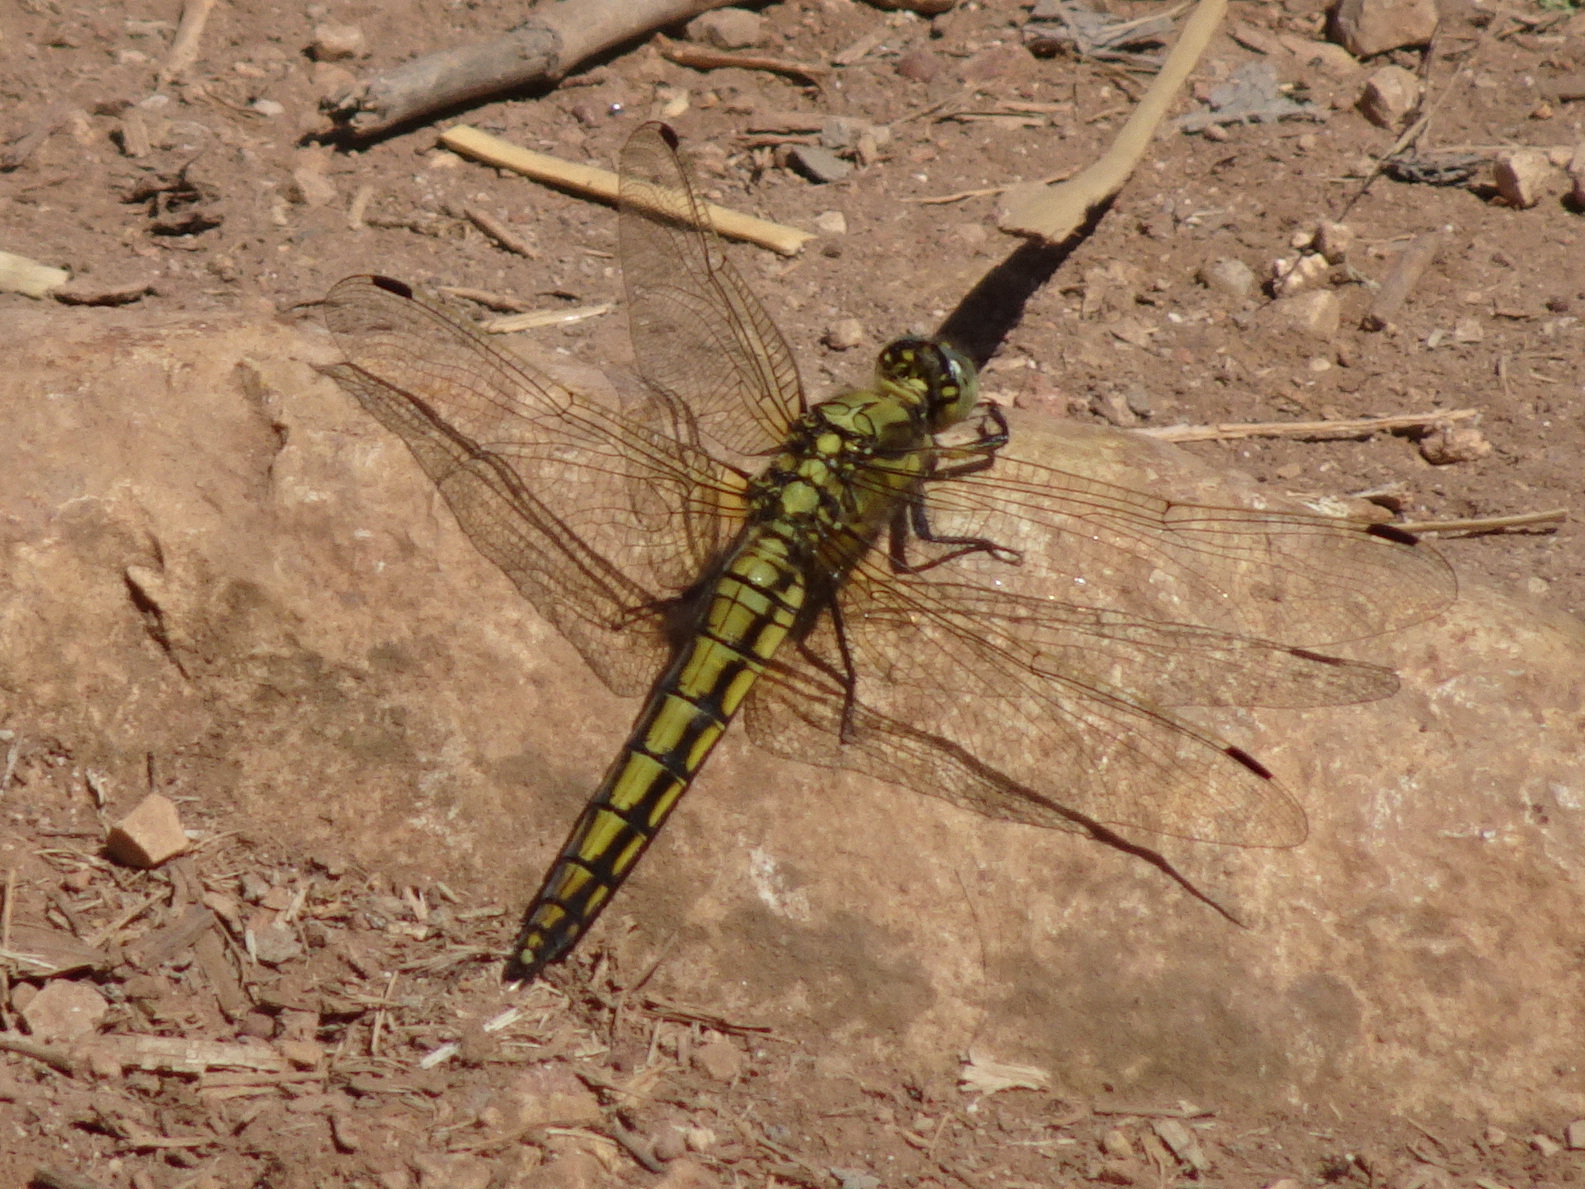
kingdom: Animalia
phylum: Arthropoda
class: Insecta
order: Odonata
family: Libellulidae
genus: Orthetrum
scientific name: Orthetrum cancellatum
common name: Black-tailed skimmer
